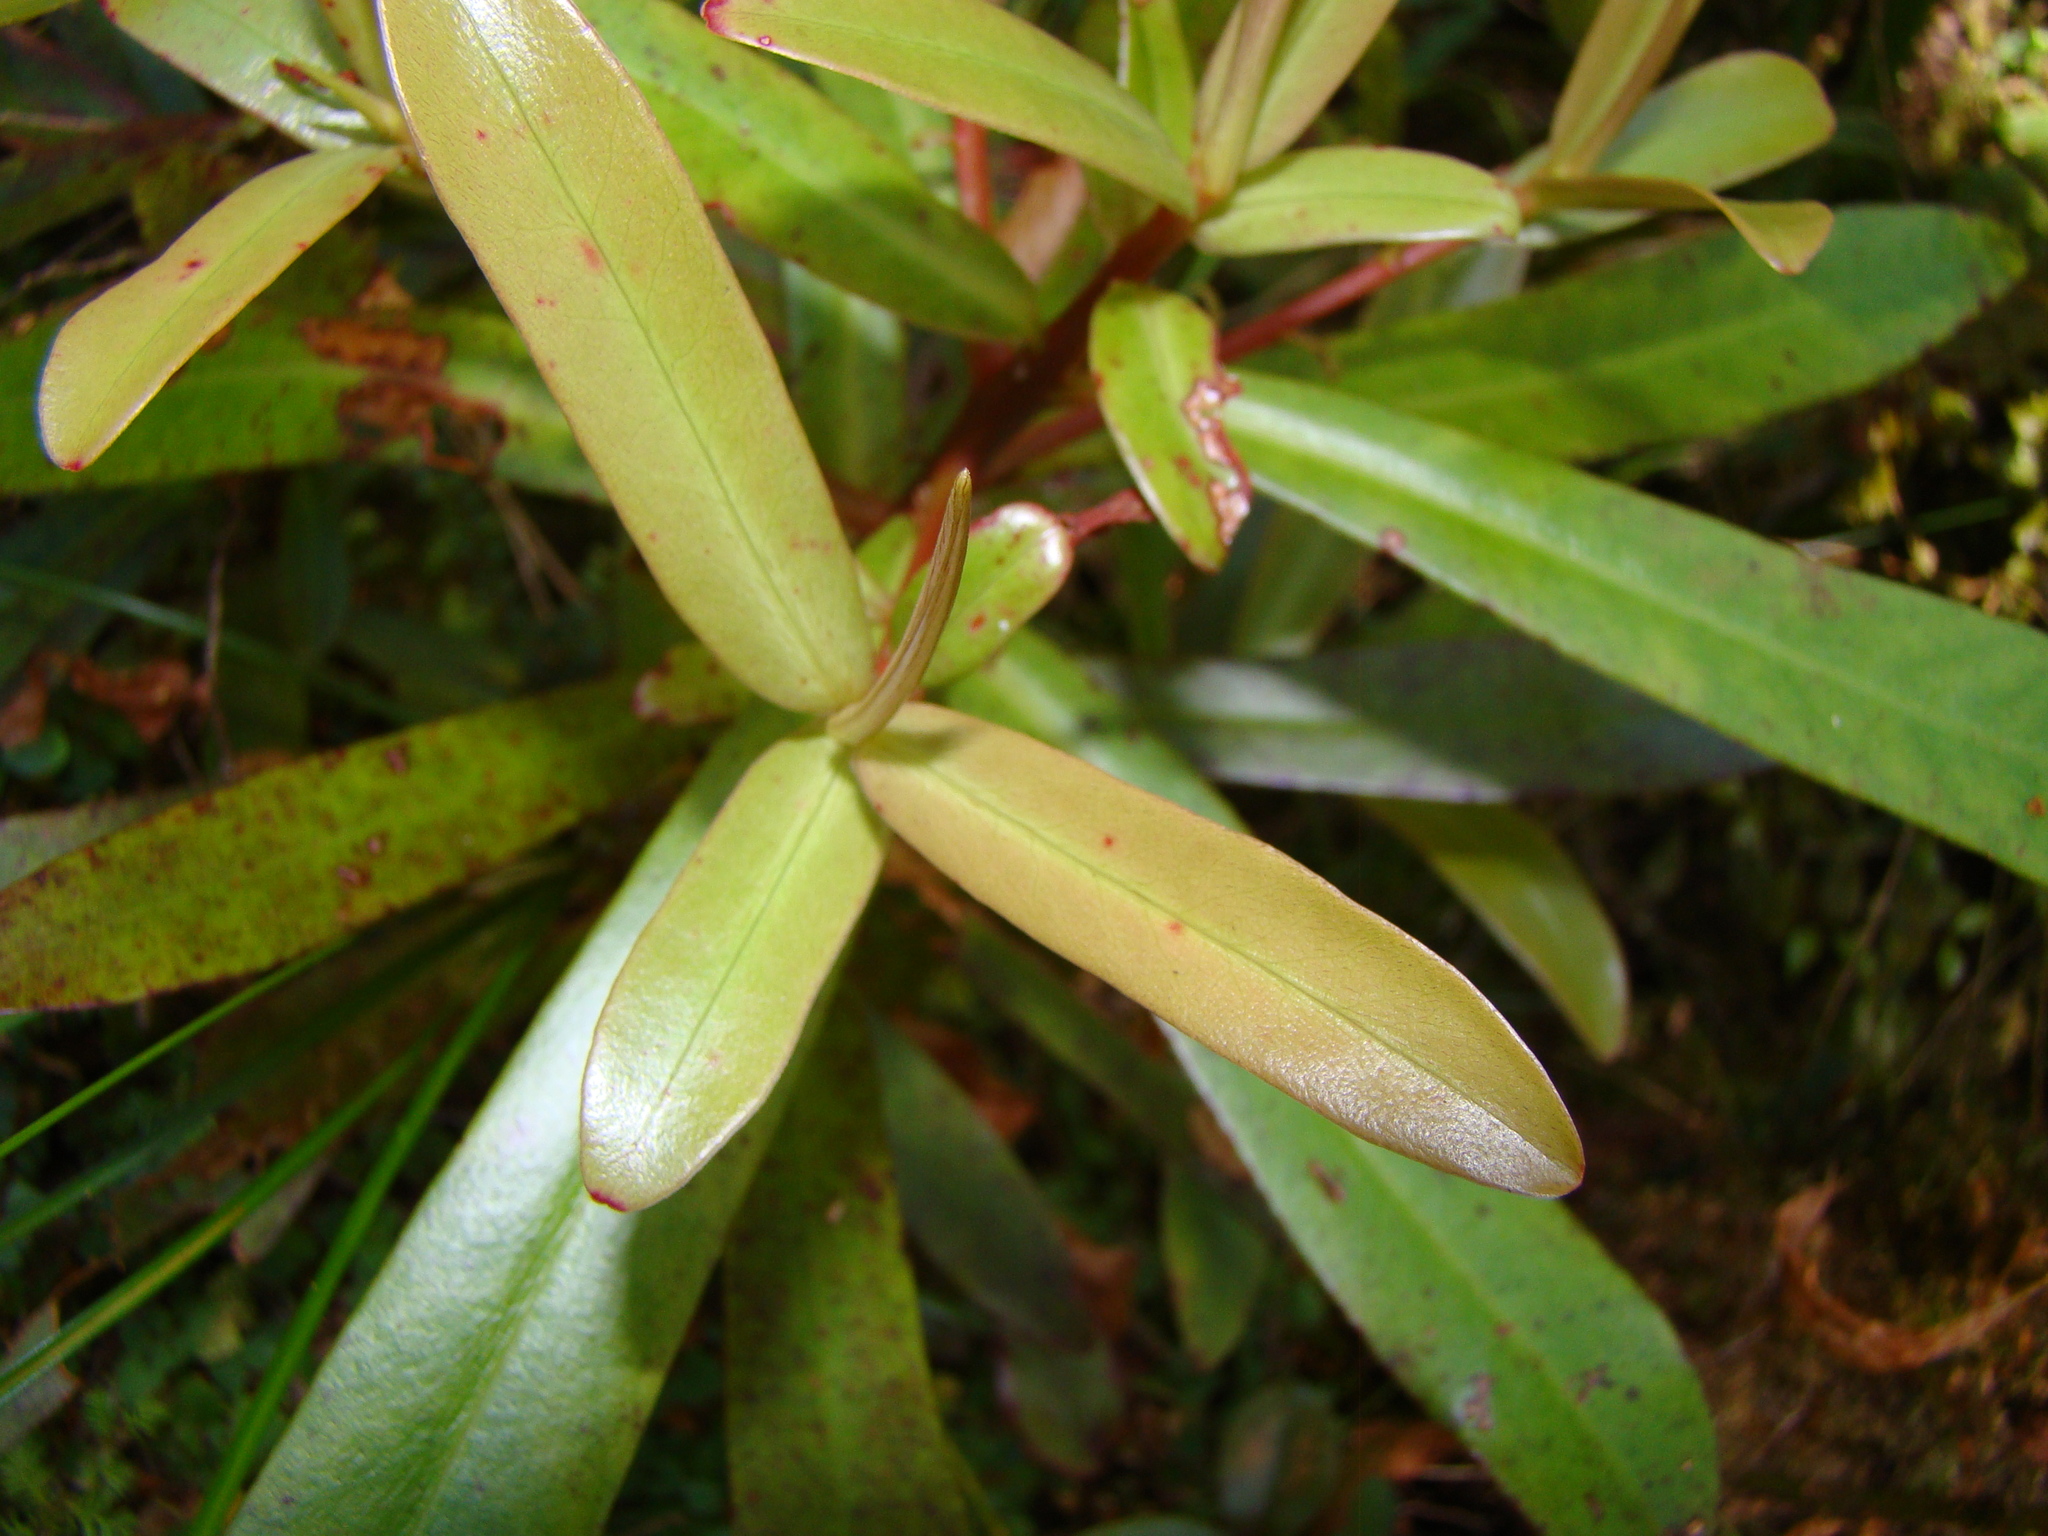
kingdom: Plantae
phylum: Tracheophyta
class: Magnoliopsida
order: Ericales
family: Primulaceae
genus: Myrsine
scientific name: Myrsine salicina
